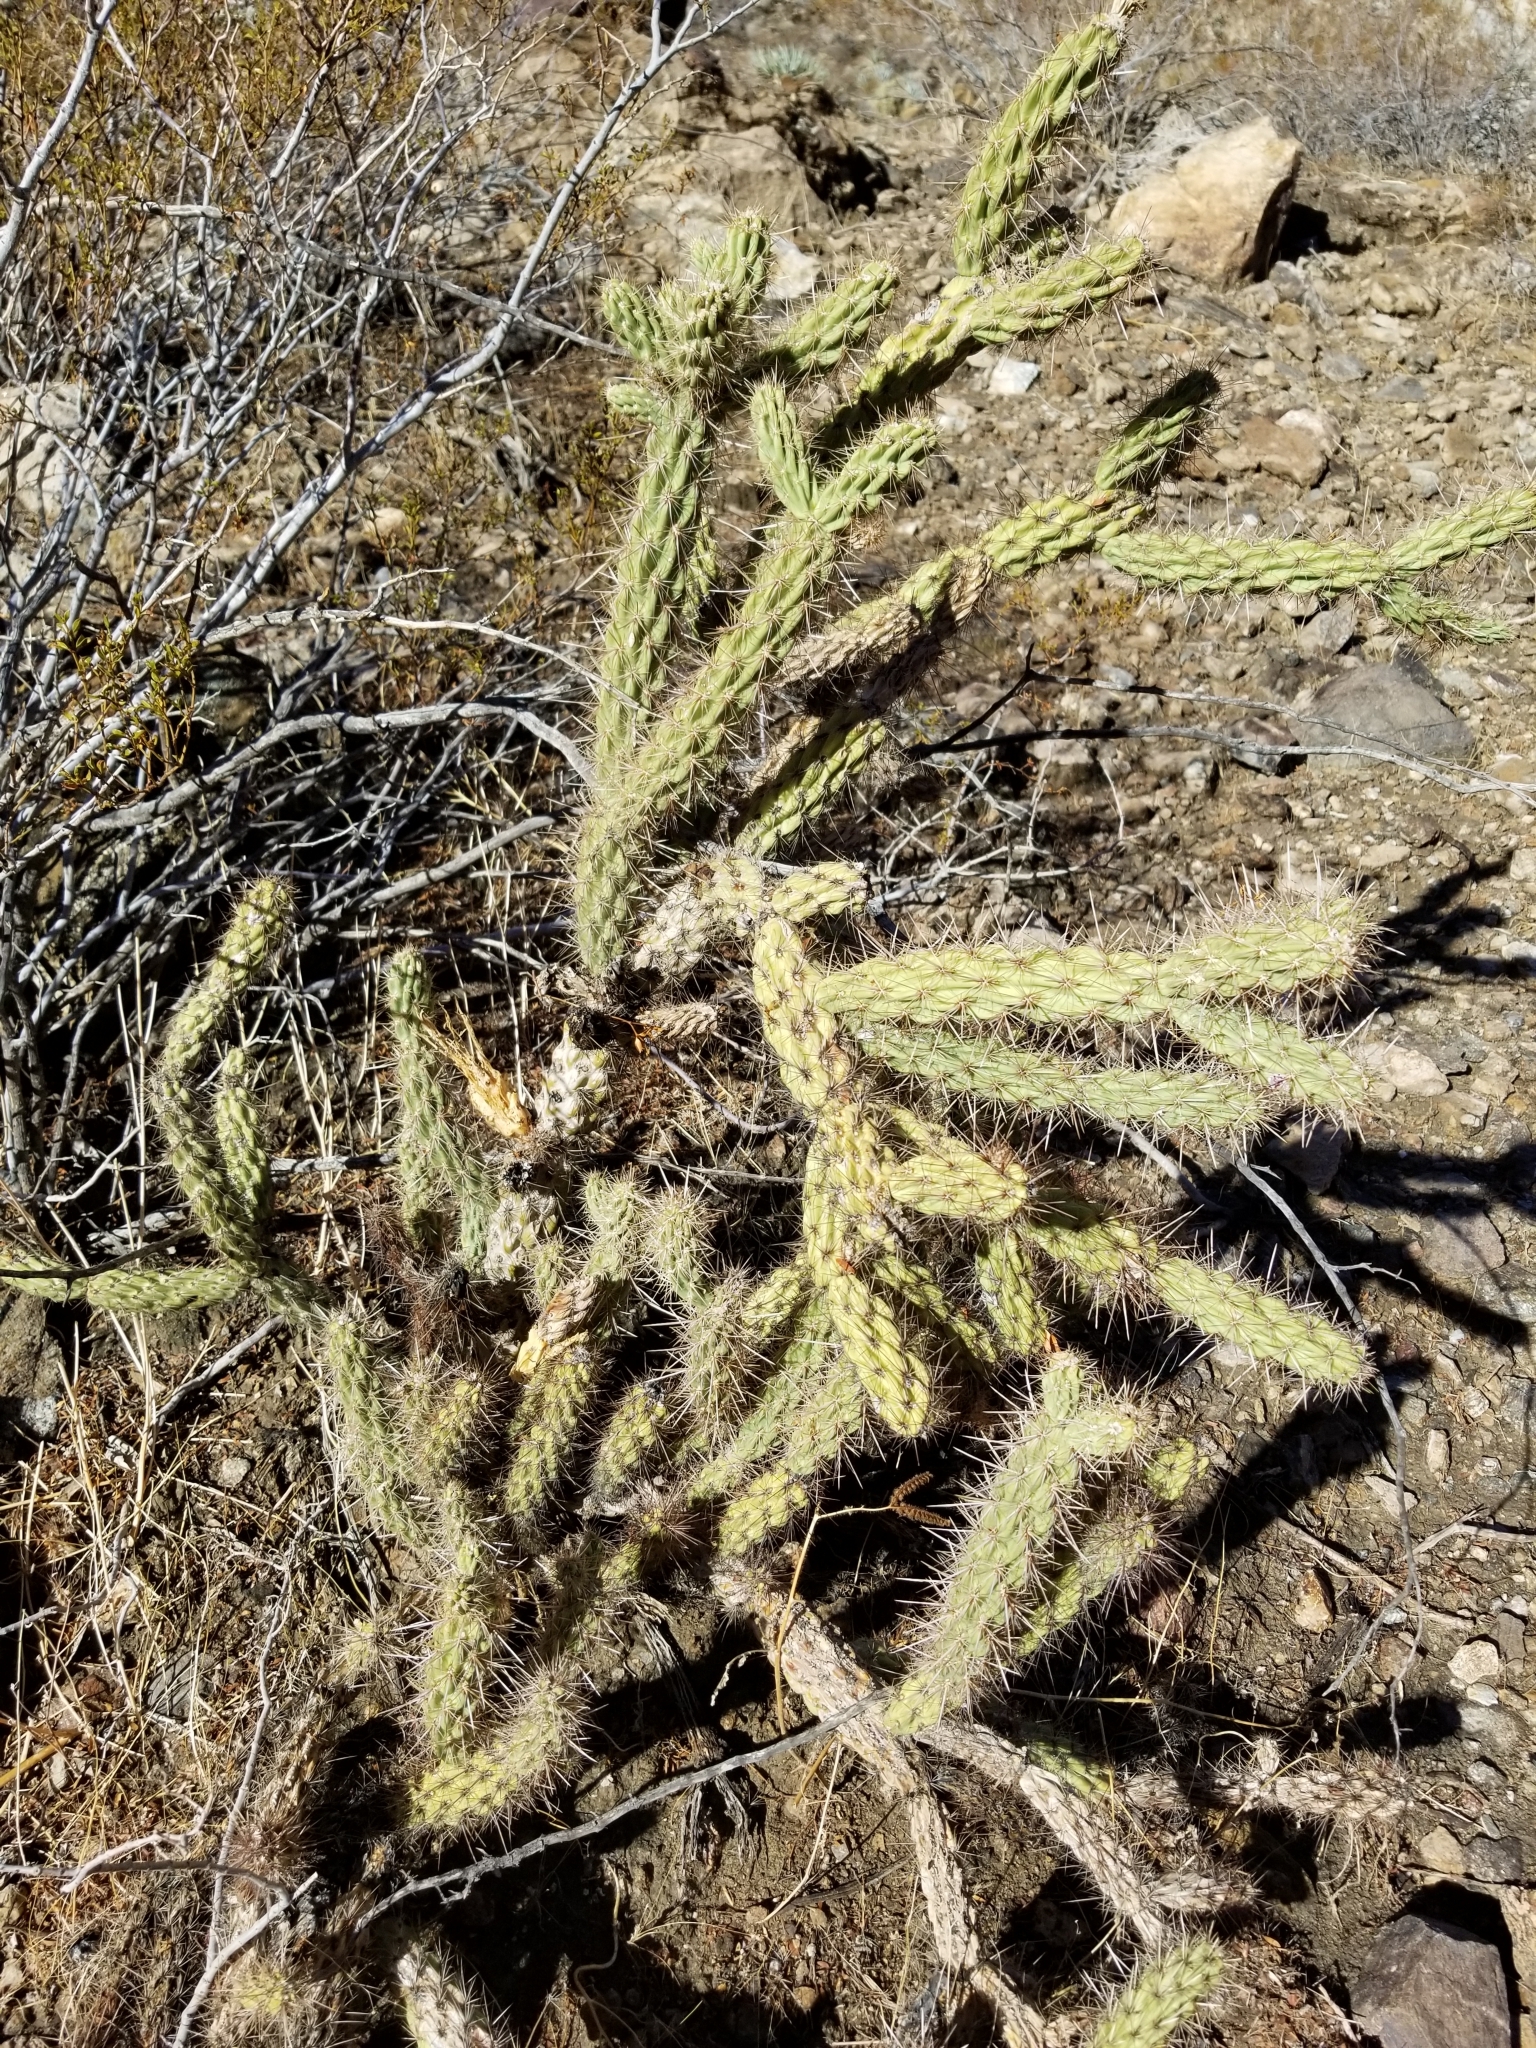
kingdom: Plantae
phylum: Tracheophyta
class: Magnoliopsida
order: Caryophyllales
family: Cactaceae
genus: Cylindropuntia
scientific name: Cylindropuntia ganderi
